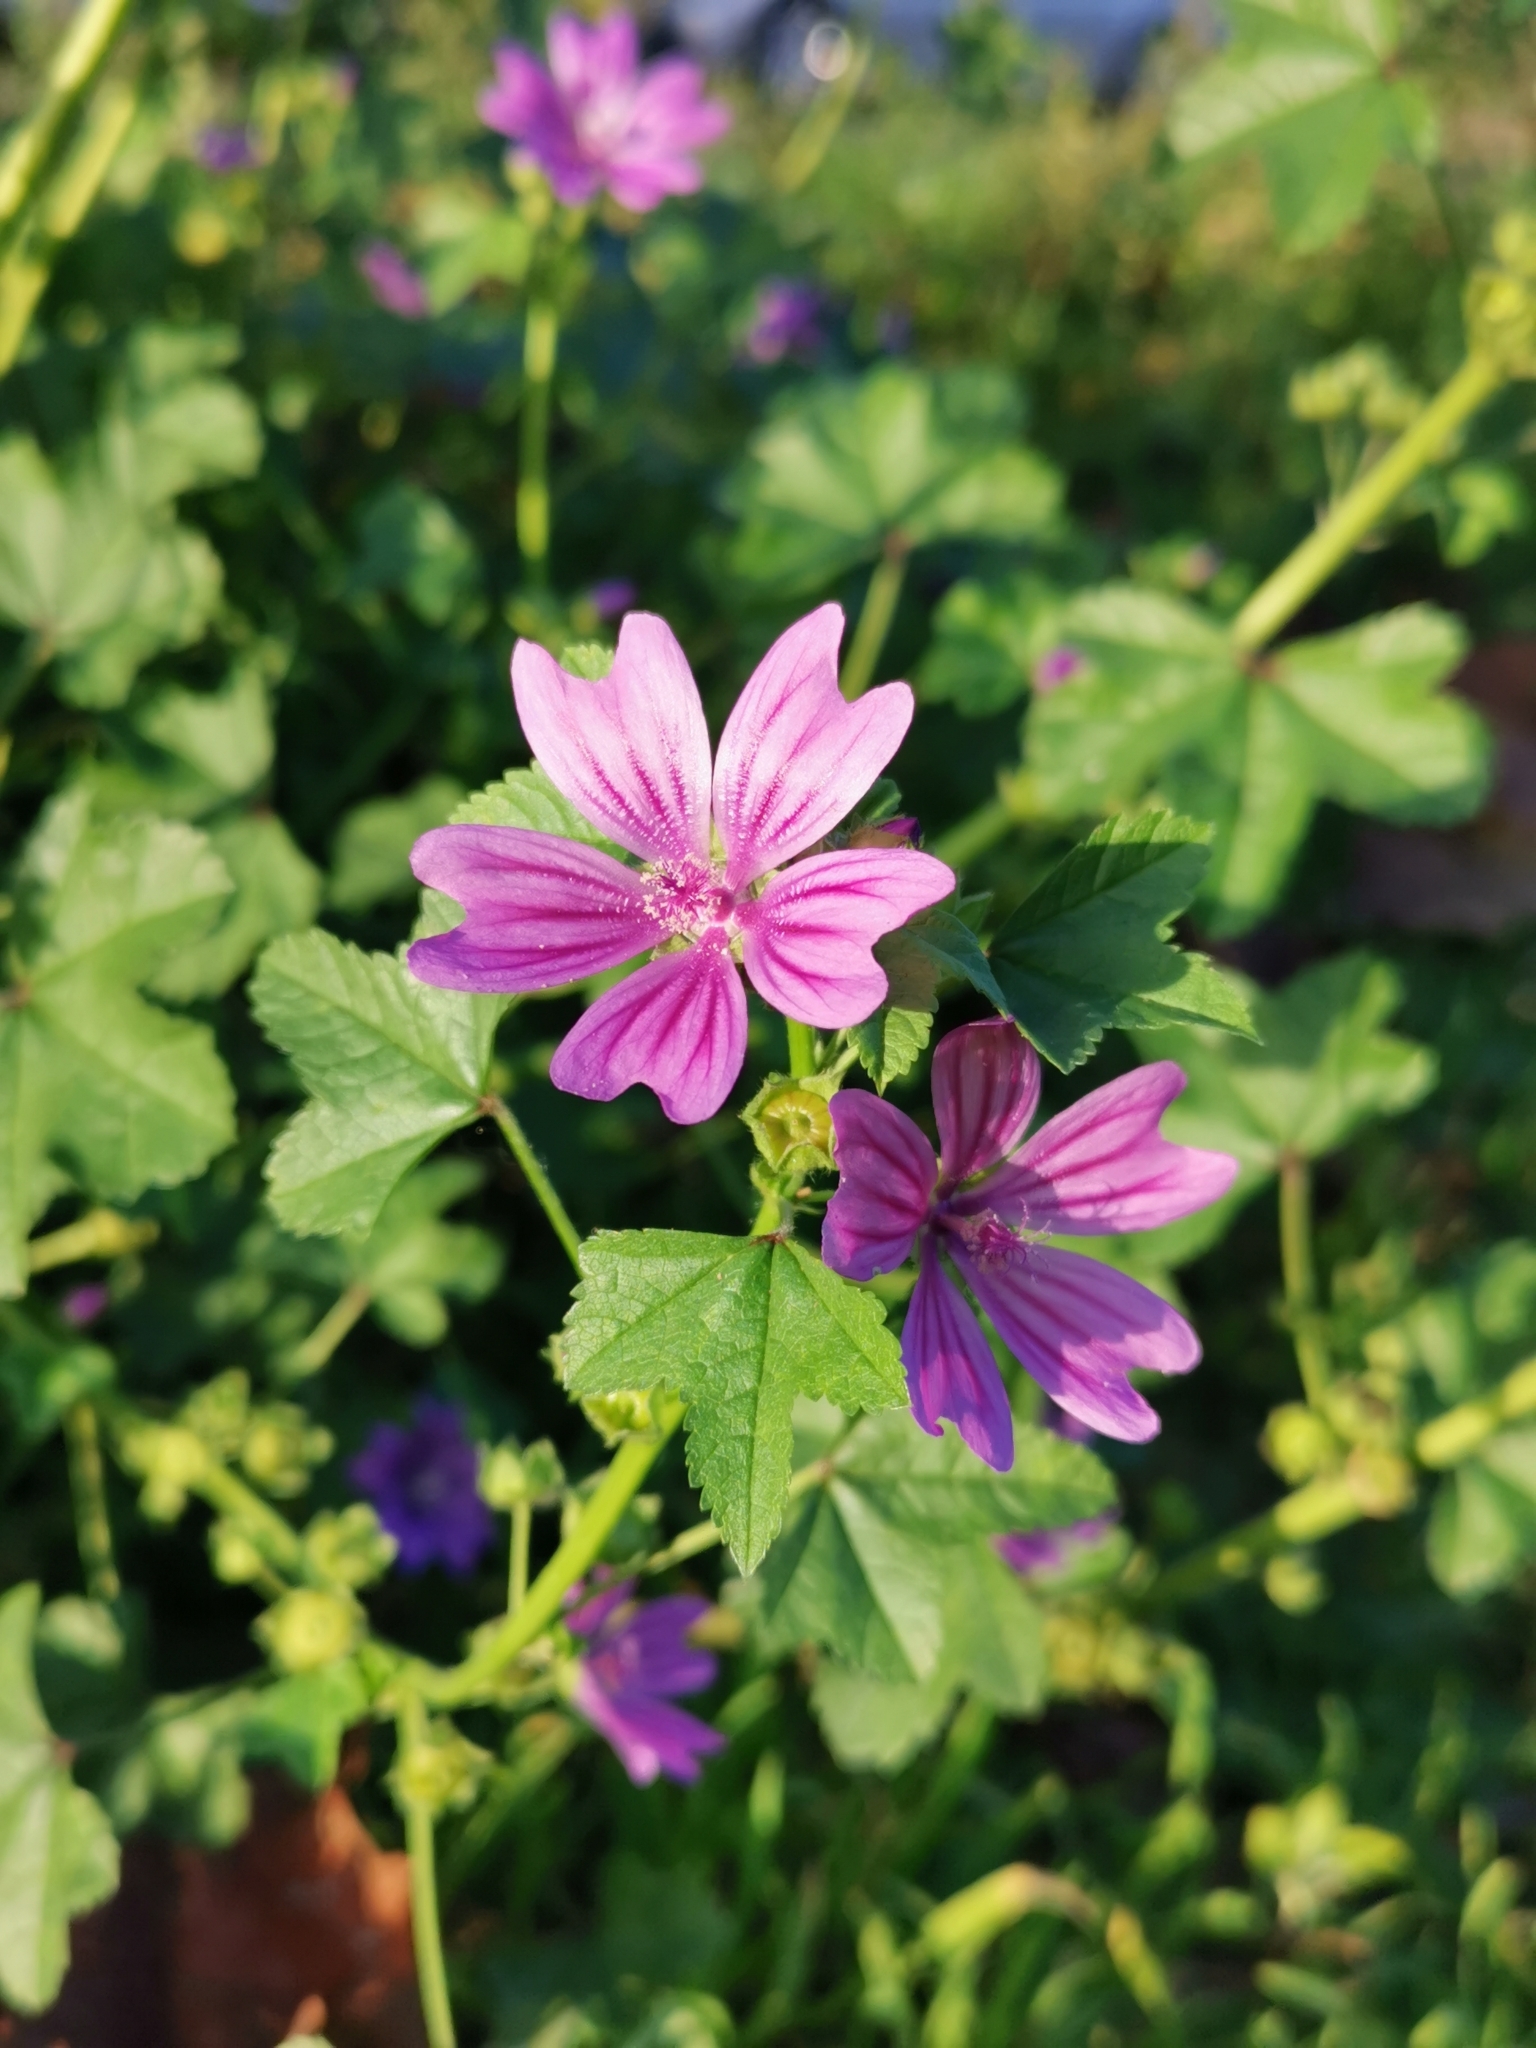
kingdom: Plantae
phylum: Tracheophyta
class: Magnoliopsida
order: Malvales
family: Malvaceae
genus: Malva
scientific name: Malva sylvestris
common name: Common mallow
